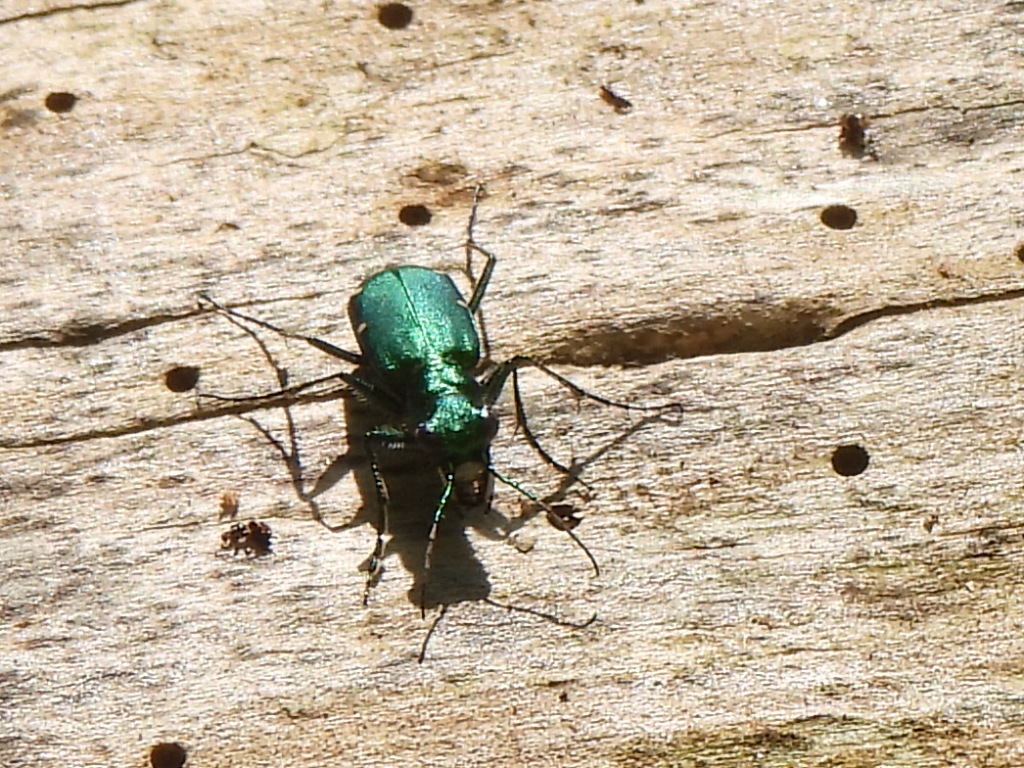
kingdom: Animalia
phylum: Arthropoda
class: Insecta
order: Coleoptera
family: Carabidae
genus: Cicindela
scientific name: Cicindela sexguttata
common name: Six-spotted tiger beetle
